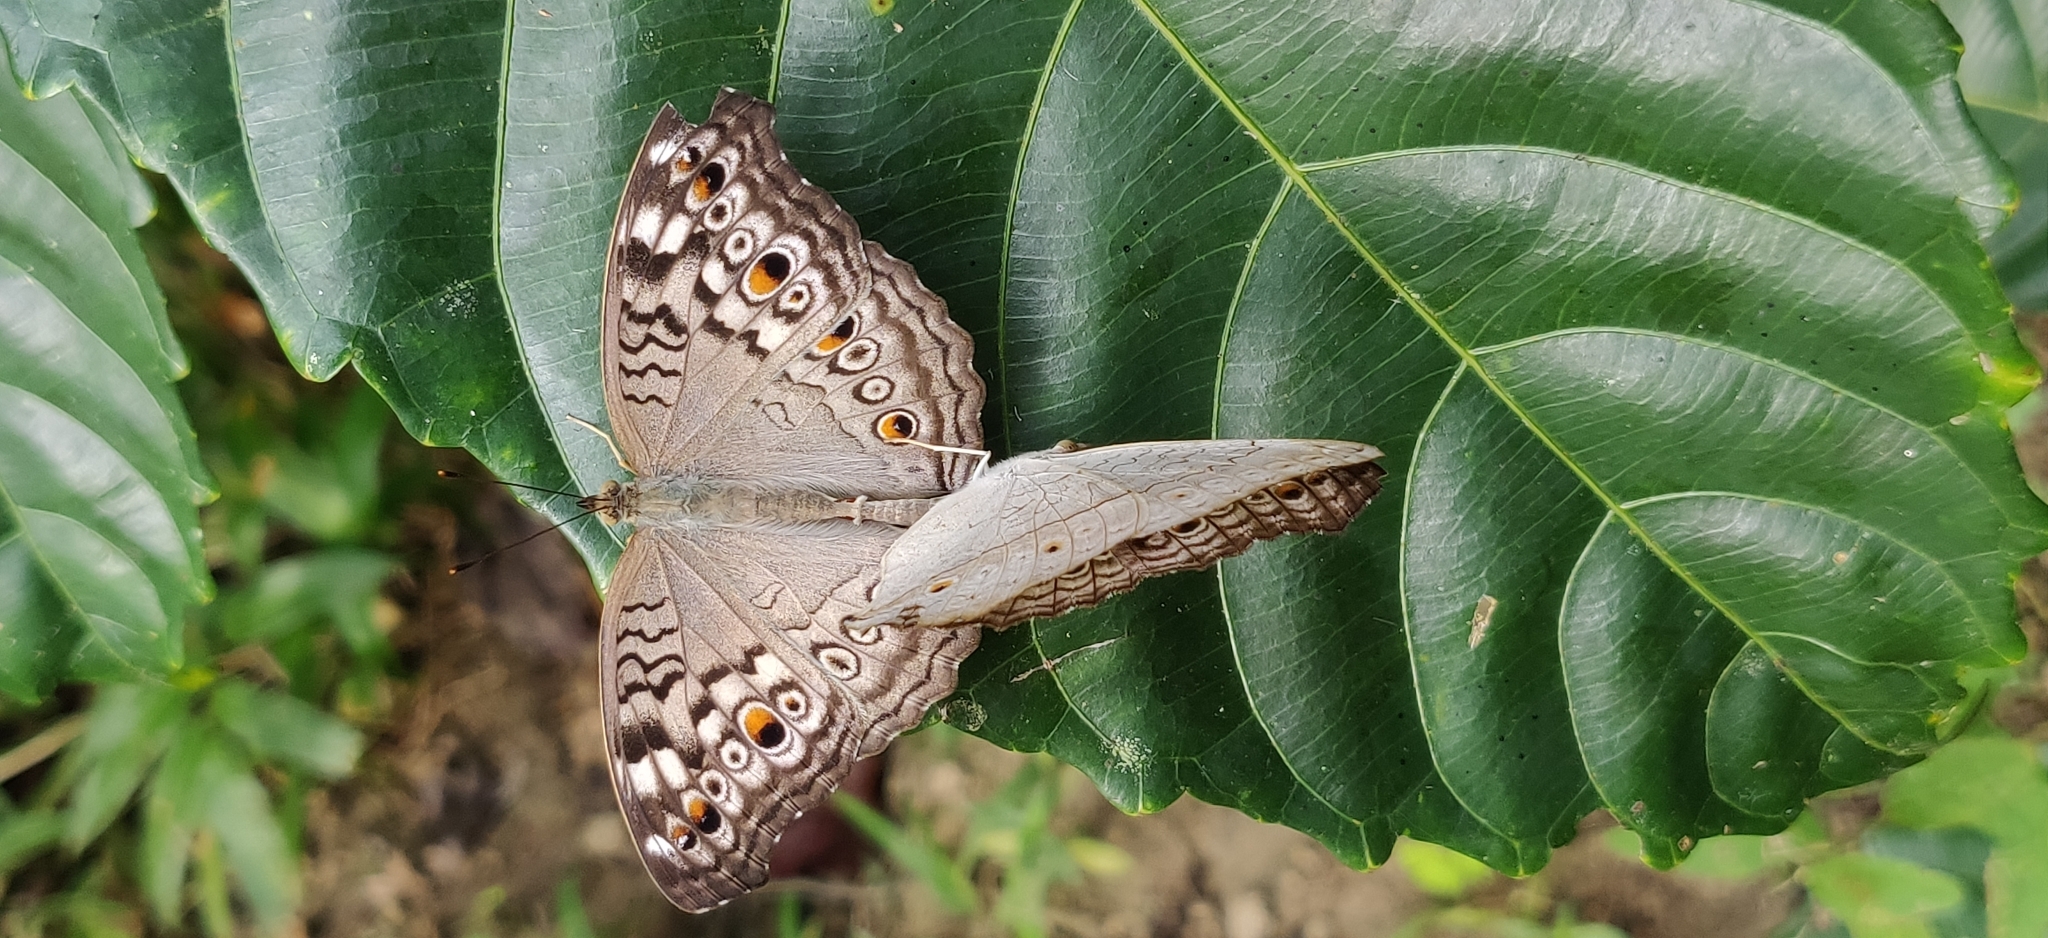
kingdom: Animalia
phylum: Arthropoda
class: Insecta
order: Lepidoptera
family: Nymphalidae
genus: Junonia
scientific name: Junonia atlites
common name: Grey pansy
